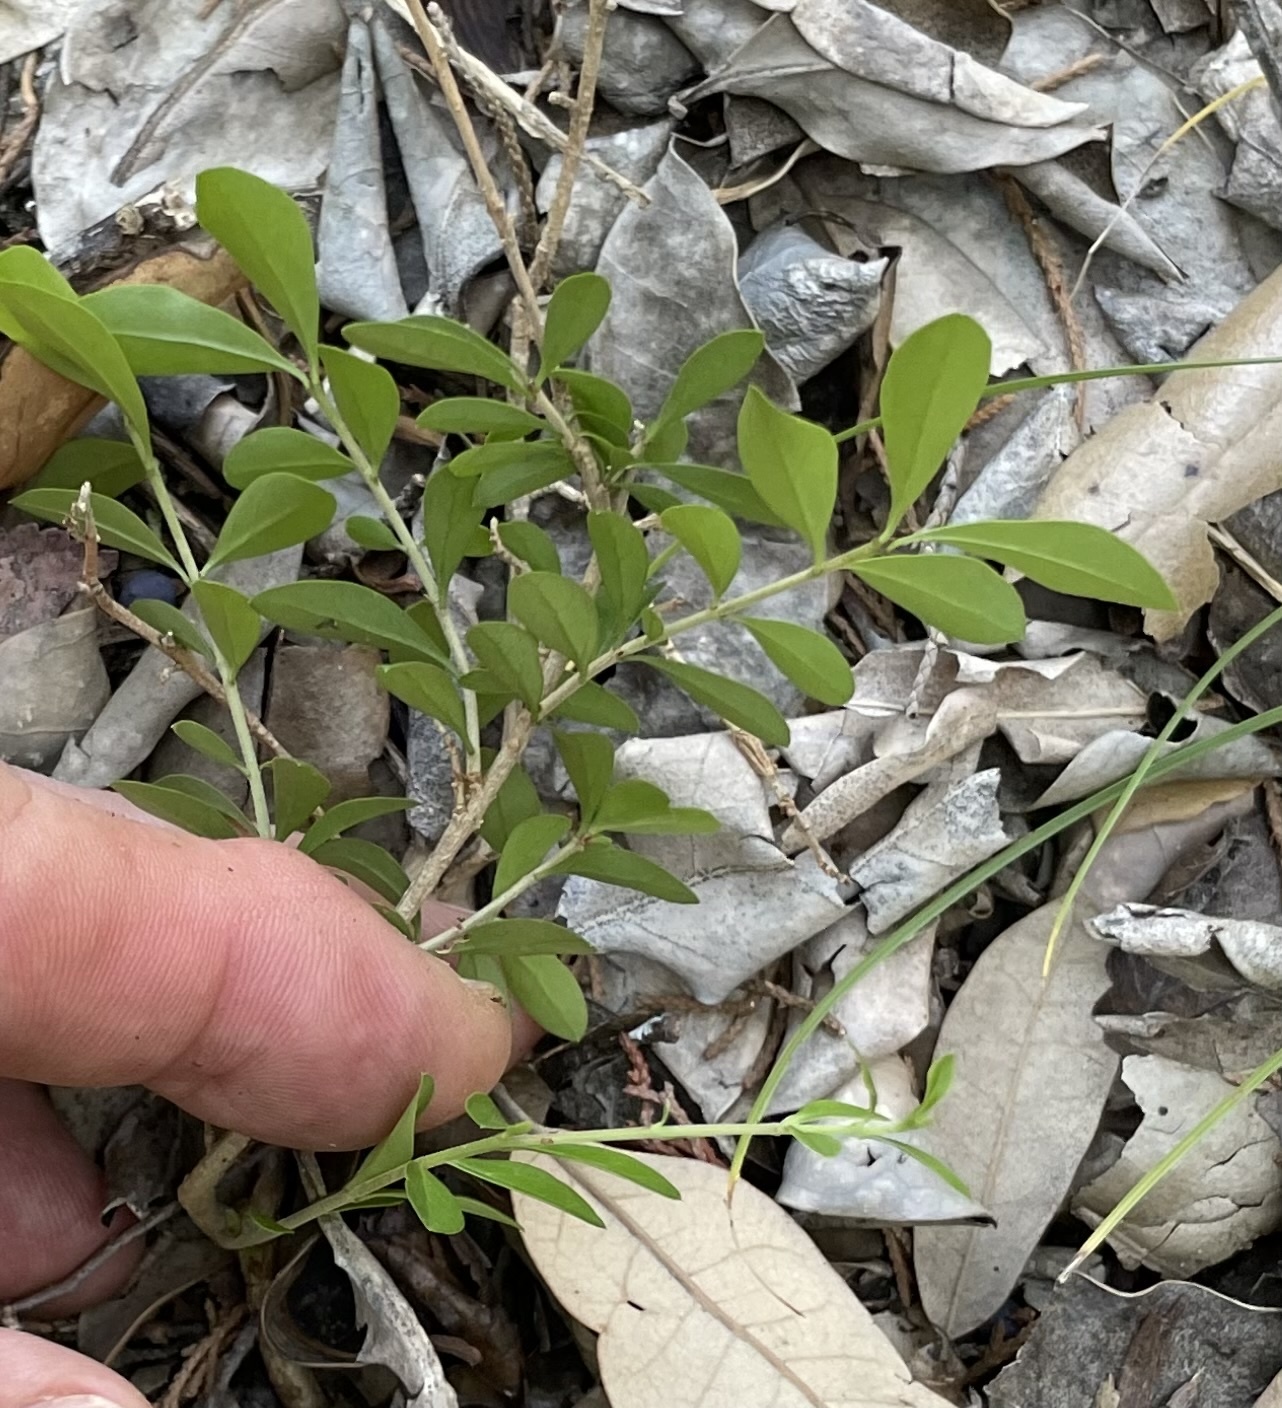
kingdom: Plantae
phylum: Tracheophyta
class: Magnoliopsida
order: Lamiales
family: Oleaceae
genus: Ligustrum
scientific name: Ligustrum quihoui
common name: Waxyleaf privet
